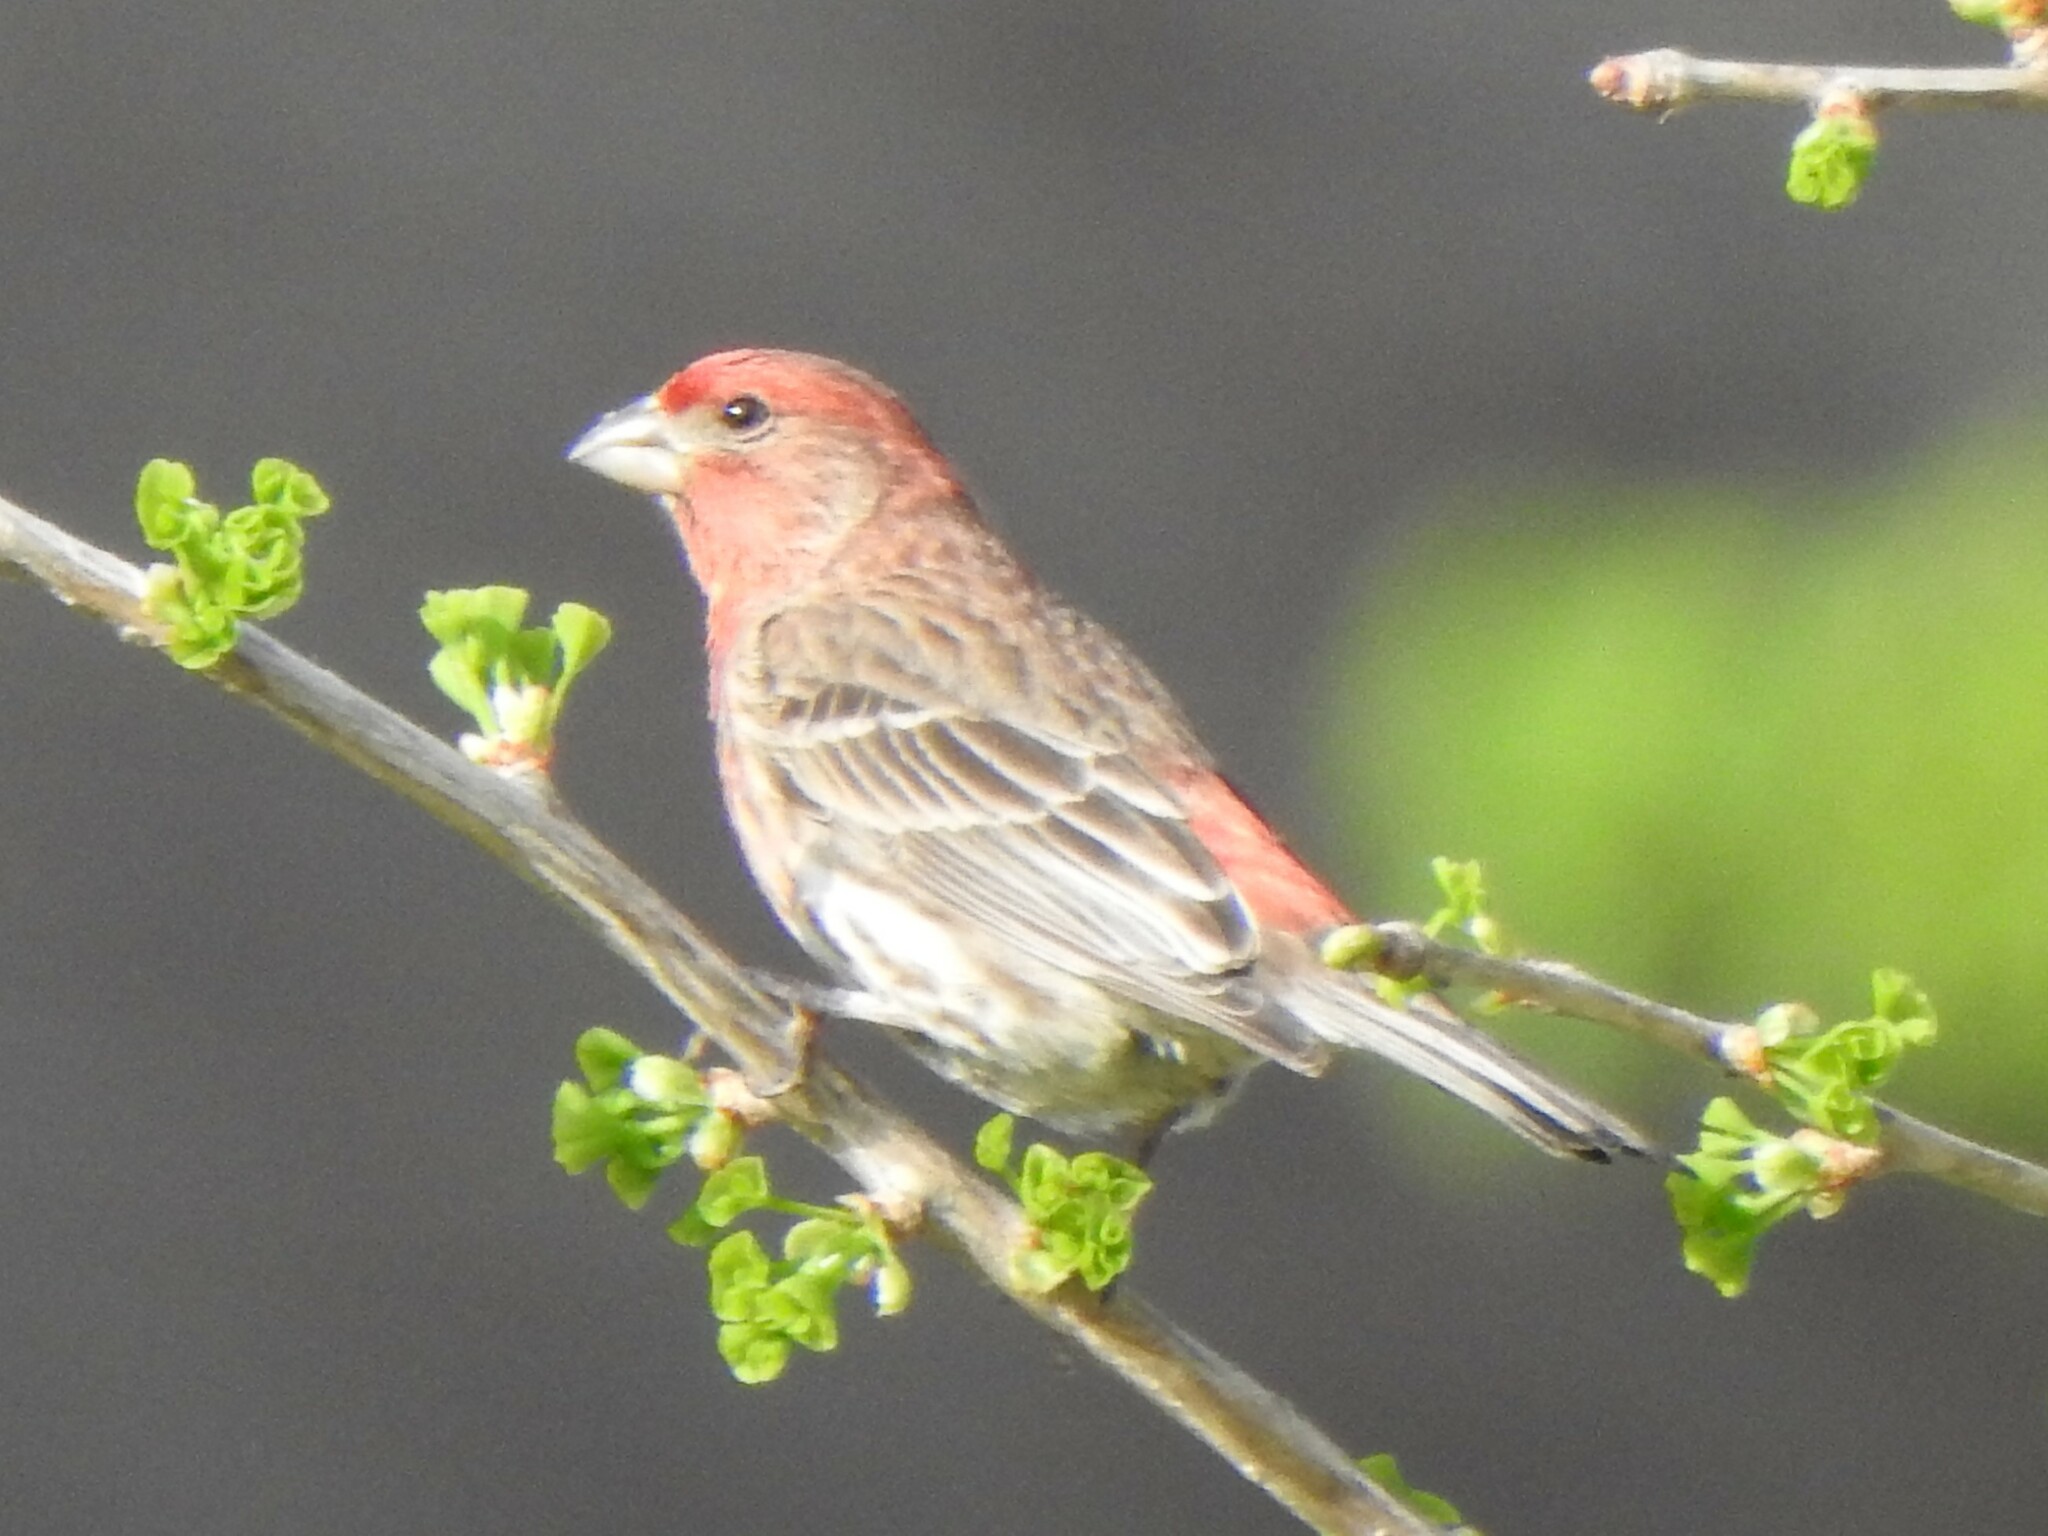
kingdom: Animalia
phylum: Chordata
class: Aves
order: Passeriformes
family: Fringillidae
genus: Haemorhous
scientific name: Haemorhous mexicanus
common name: House finch
